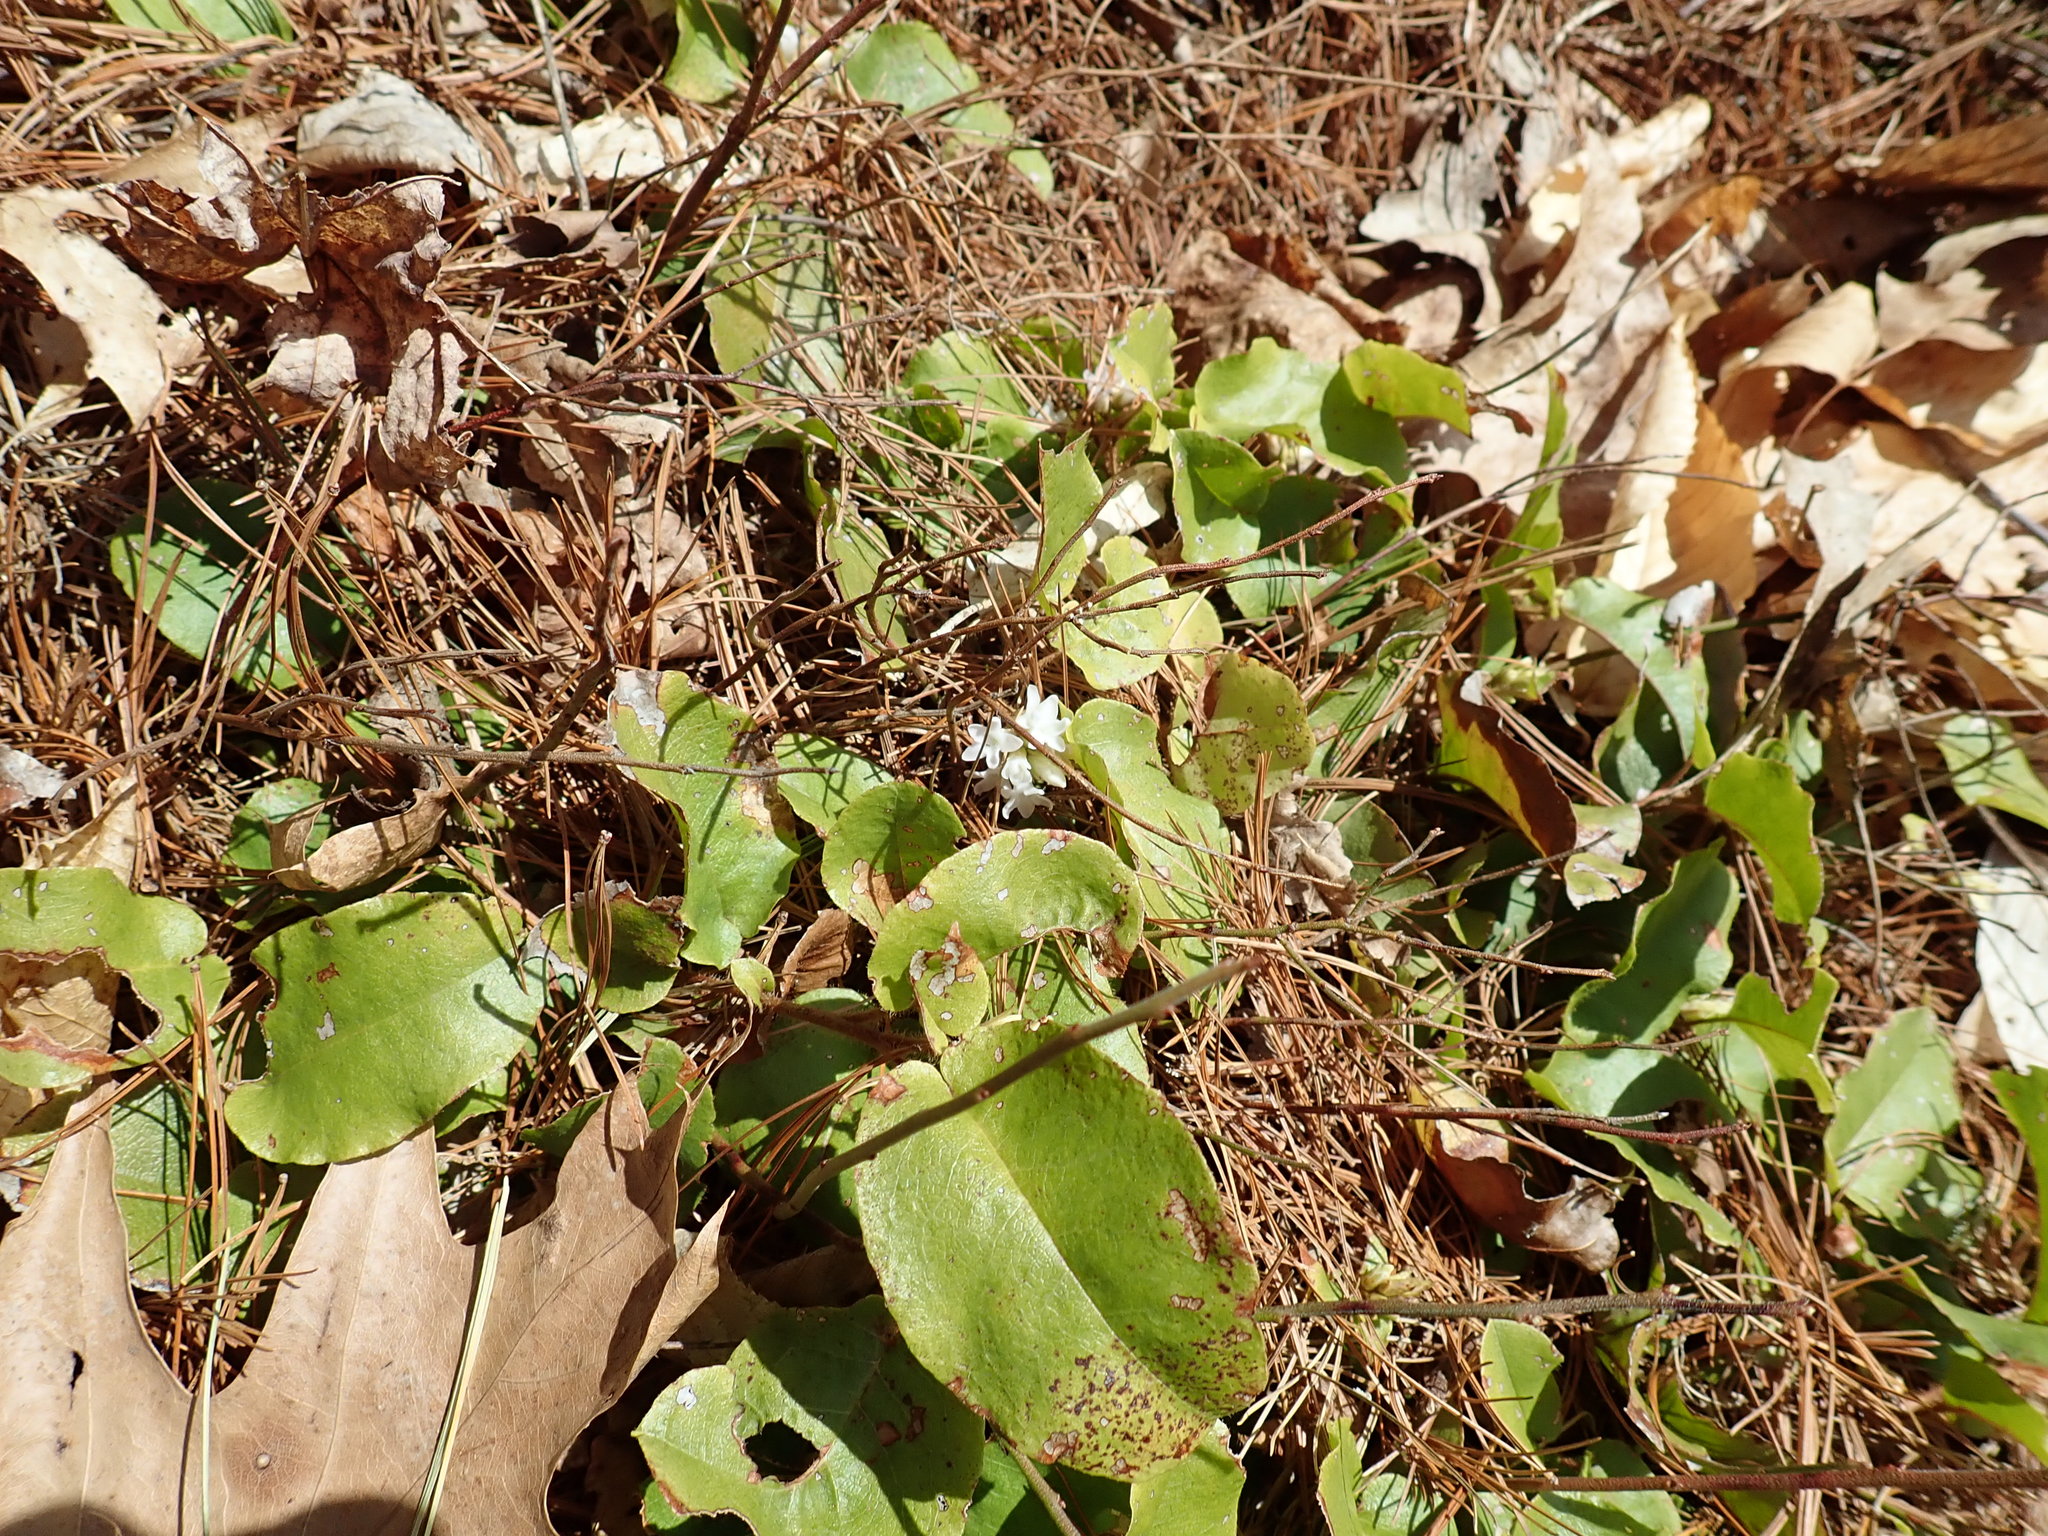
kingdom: Plantae
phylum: Tracheophyta
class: Magnoliopsida
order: Ericales
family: Ericaceae
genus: Epigaea
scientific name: Epigaea repens
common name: Gravelroot
